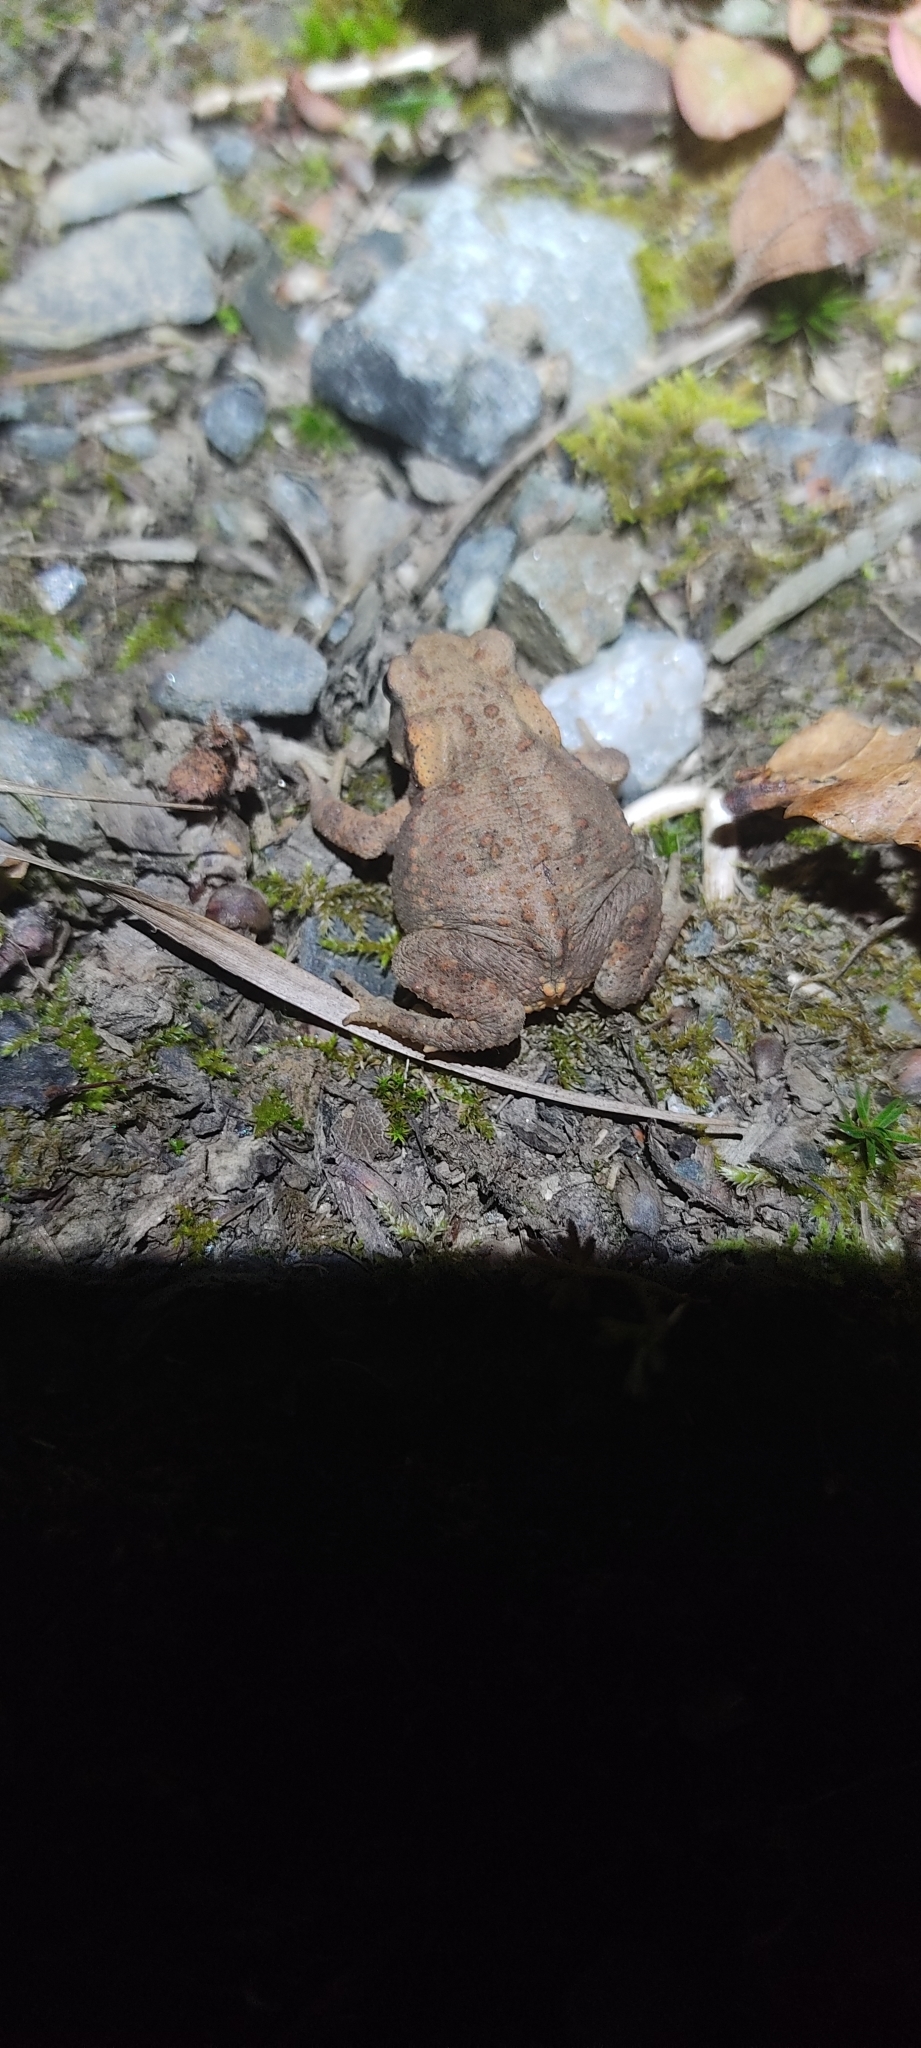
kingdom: Animalia
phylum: Chordata
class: Amphibia
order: Anura
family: Bufonidae
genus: Bufo
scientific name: Bufo spinosus
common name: Western common toad
